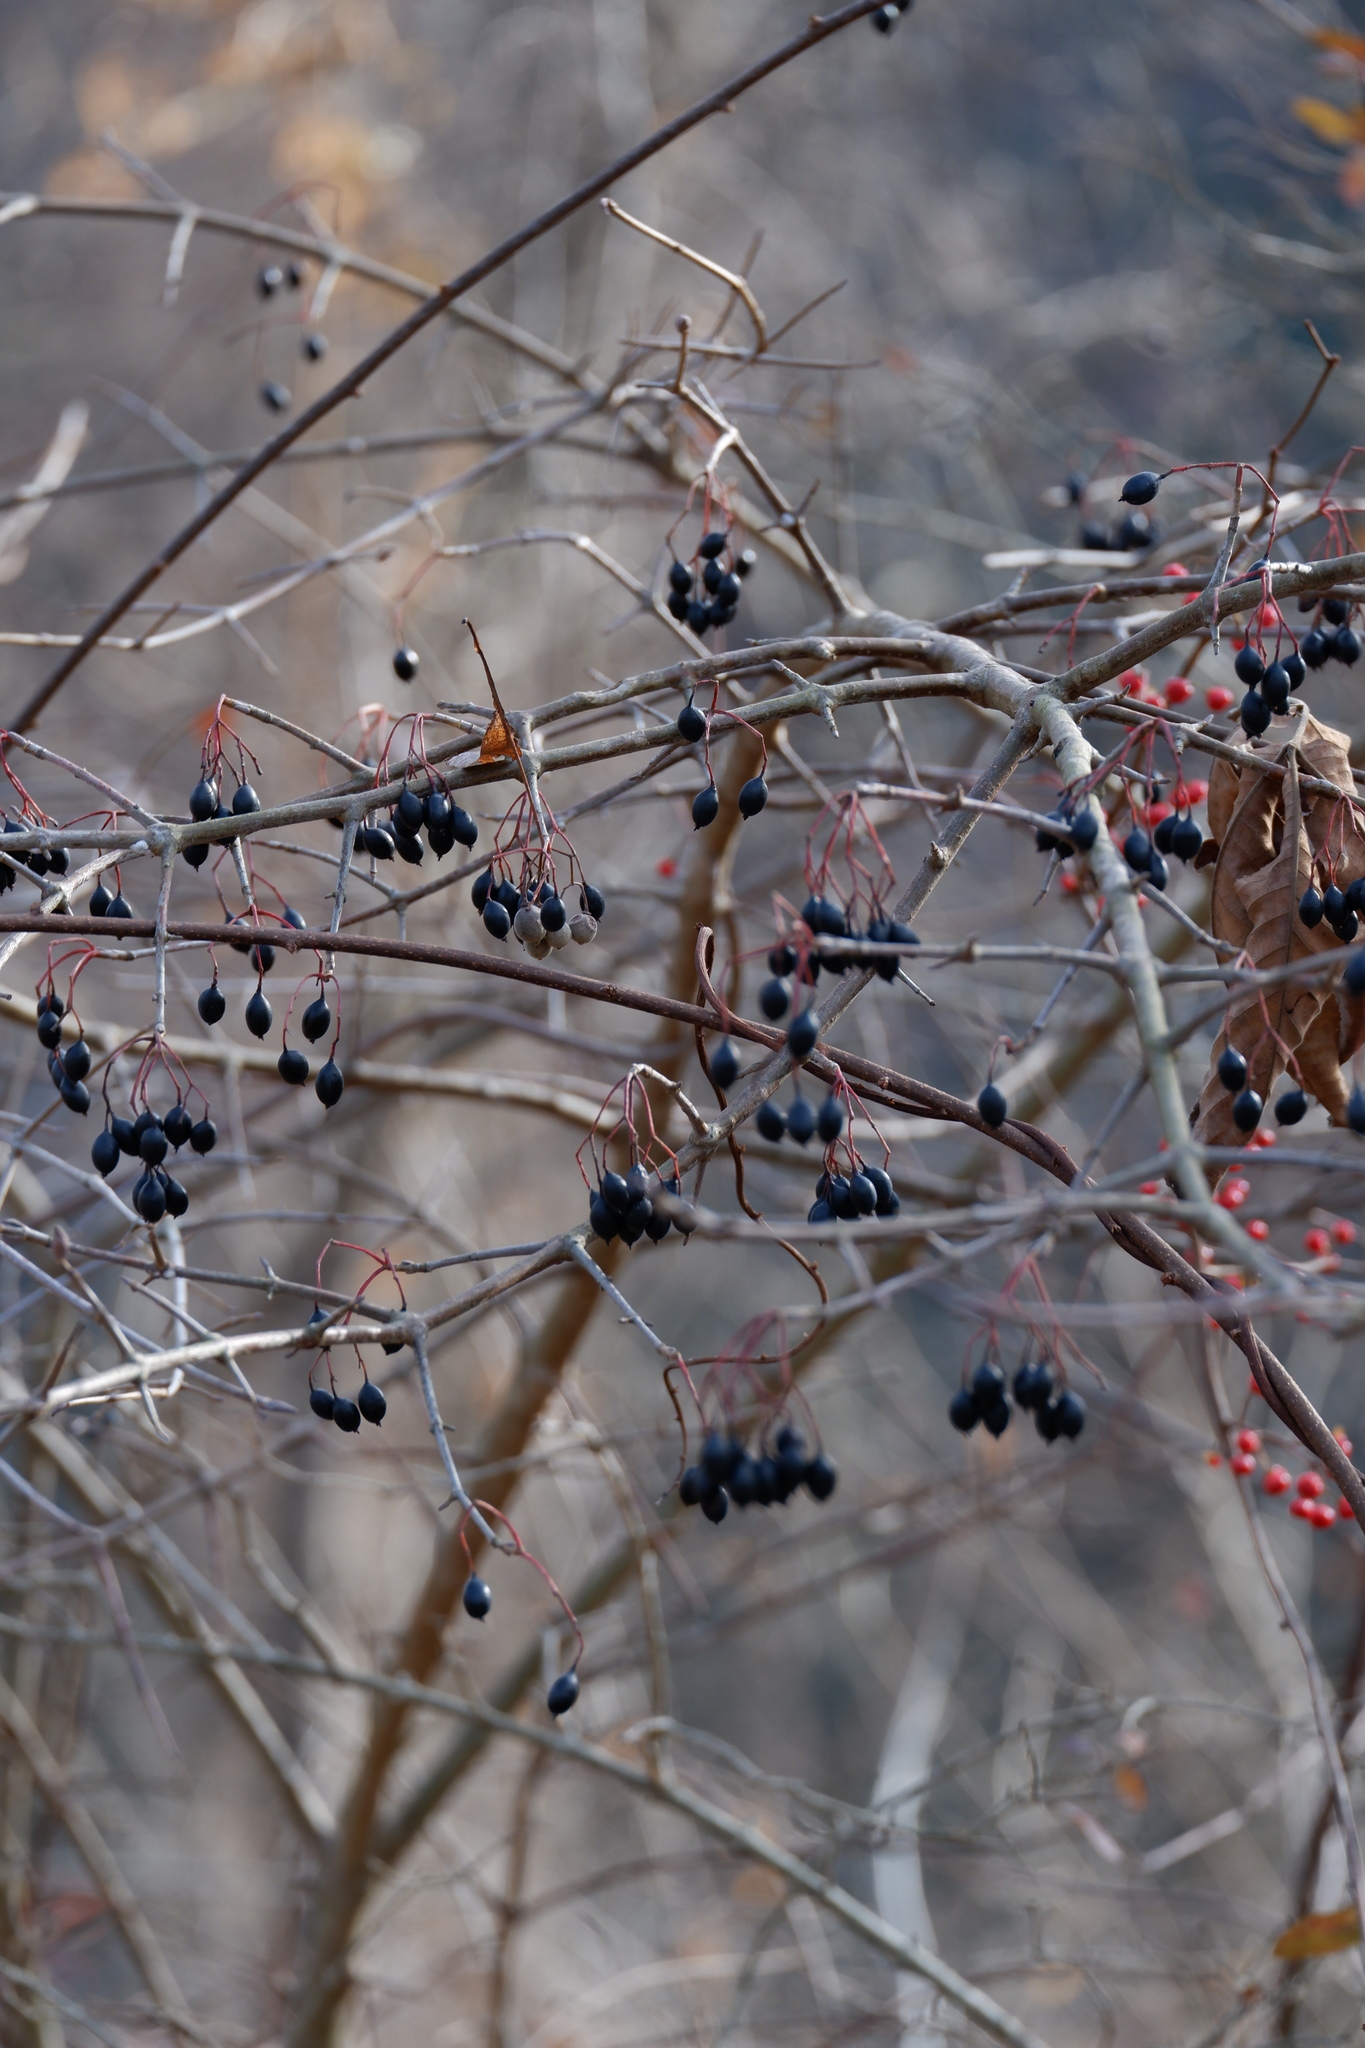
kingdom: Plantae
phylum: Tracheophyta
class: Magnoliopsida
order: Dipsacales
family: Viburnaceae
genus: Viburnum
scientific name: Viburnum prunifolium
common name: Black haw
